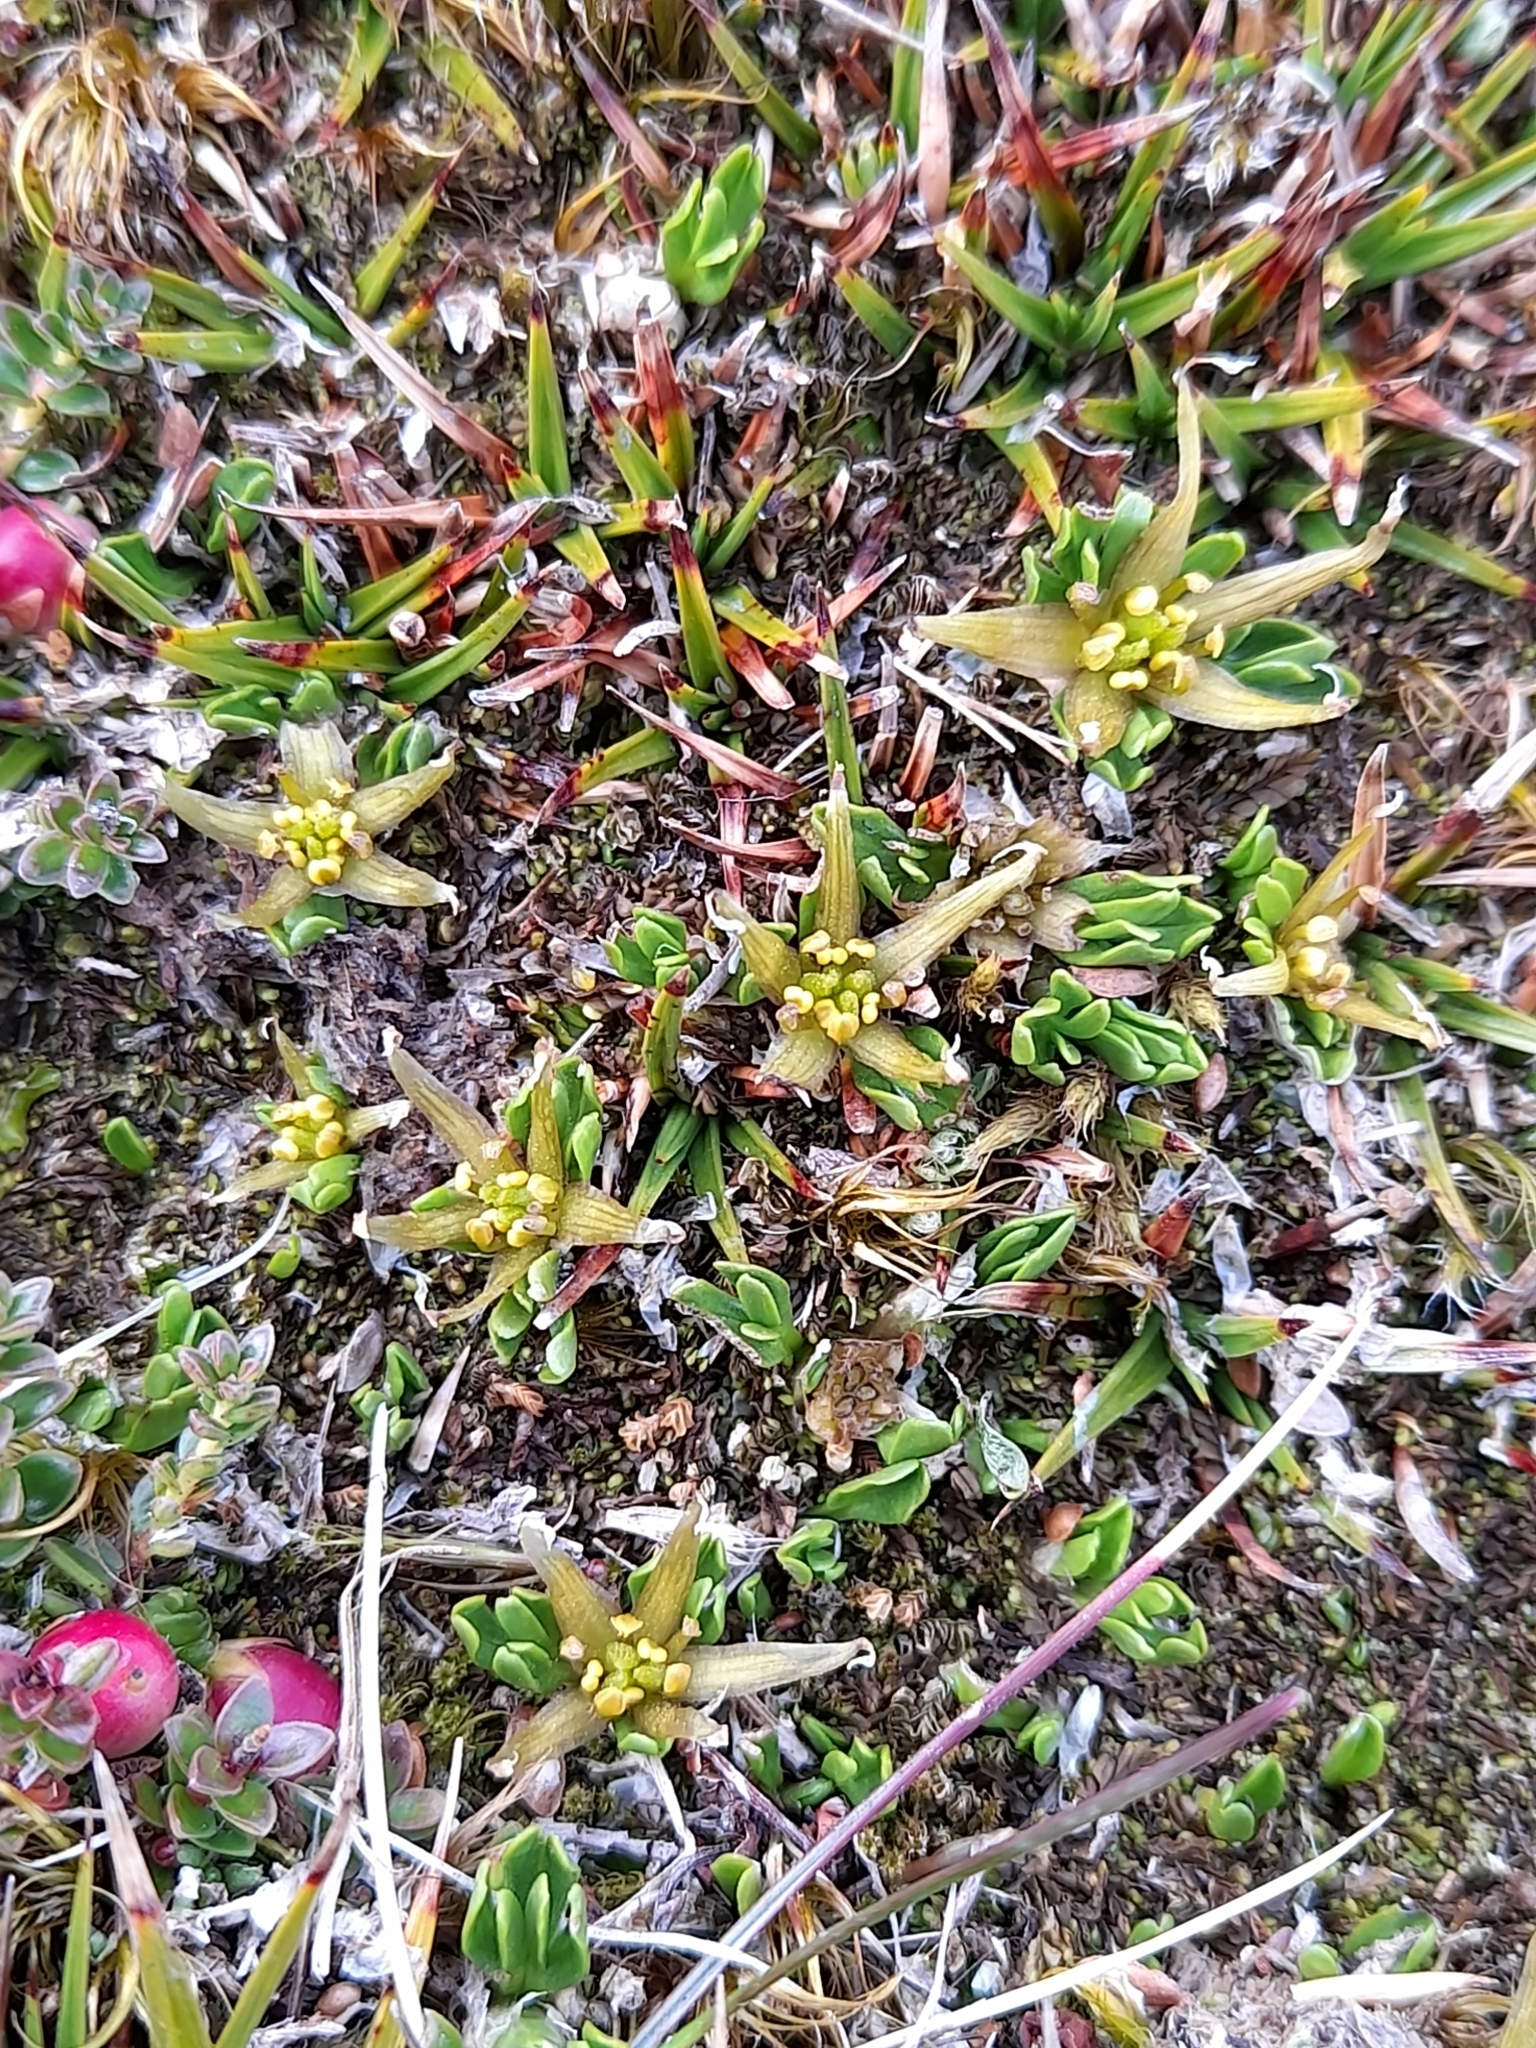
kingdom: Plantae
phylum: Tracheophyta
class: Magnoliopsida
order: Ranunculales
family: Ranunculaceae
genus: Caltha
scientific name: Caltha appendiculata
